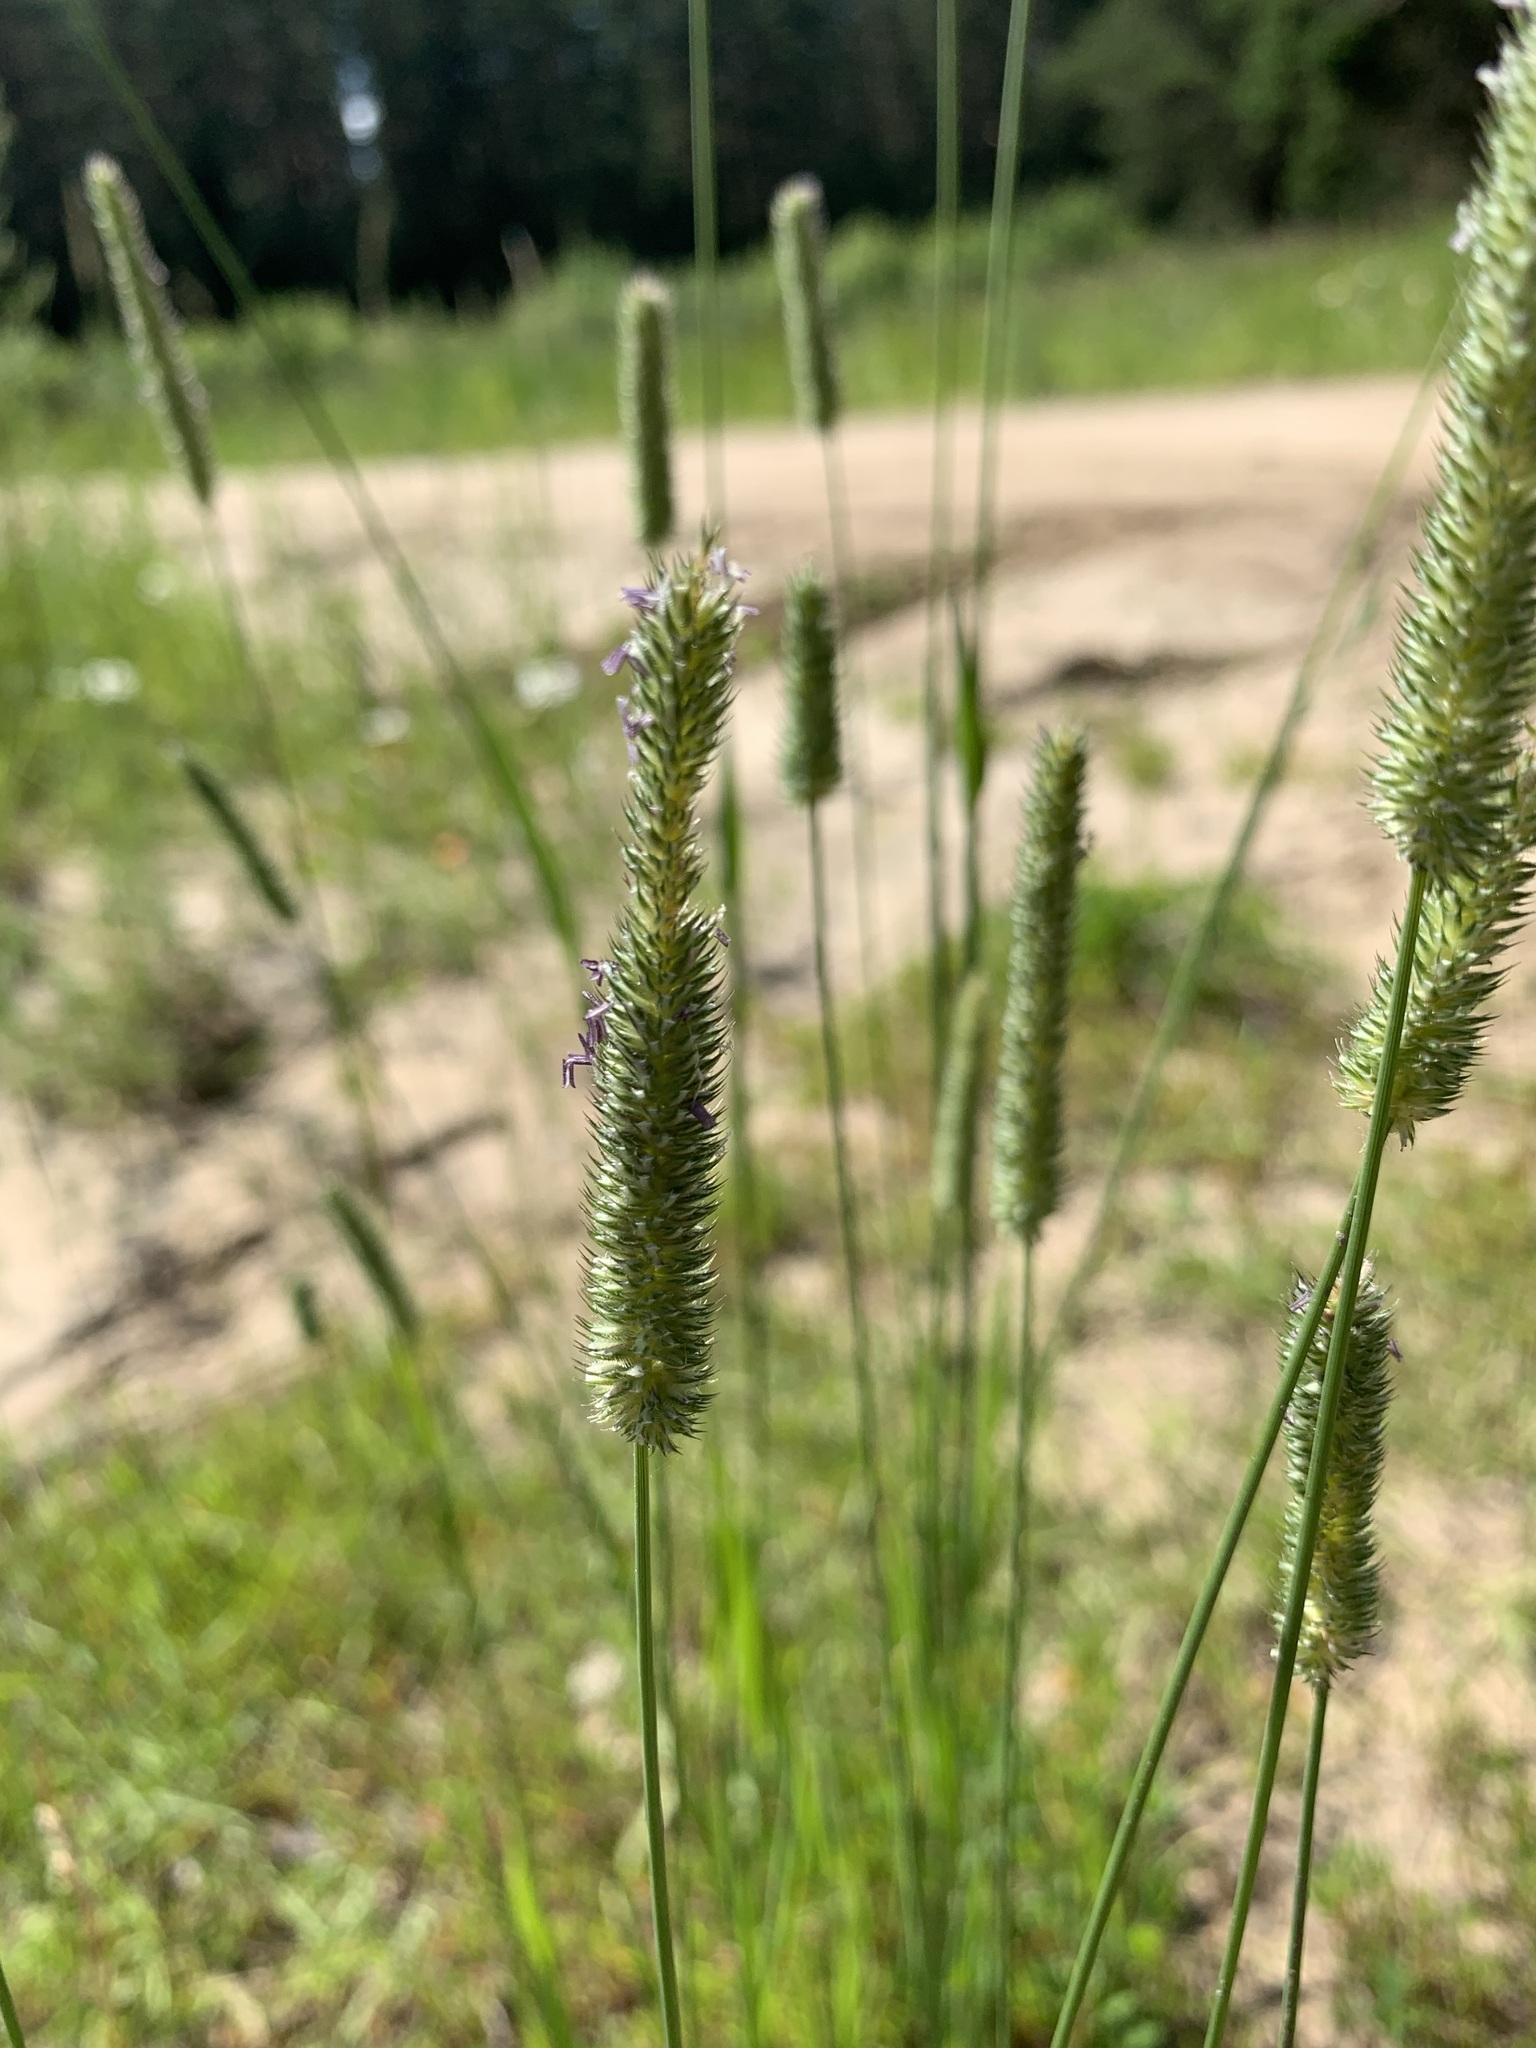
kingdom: Plantae
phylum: Tracheophyta
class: Liliopsida
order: Poales
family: Poaceae
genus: Phleum
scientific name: Phleum pratense
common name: Timothy grass
